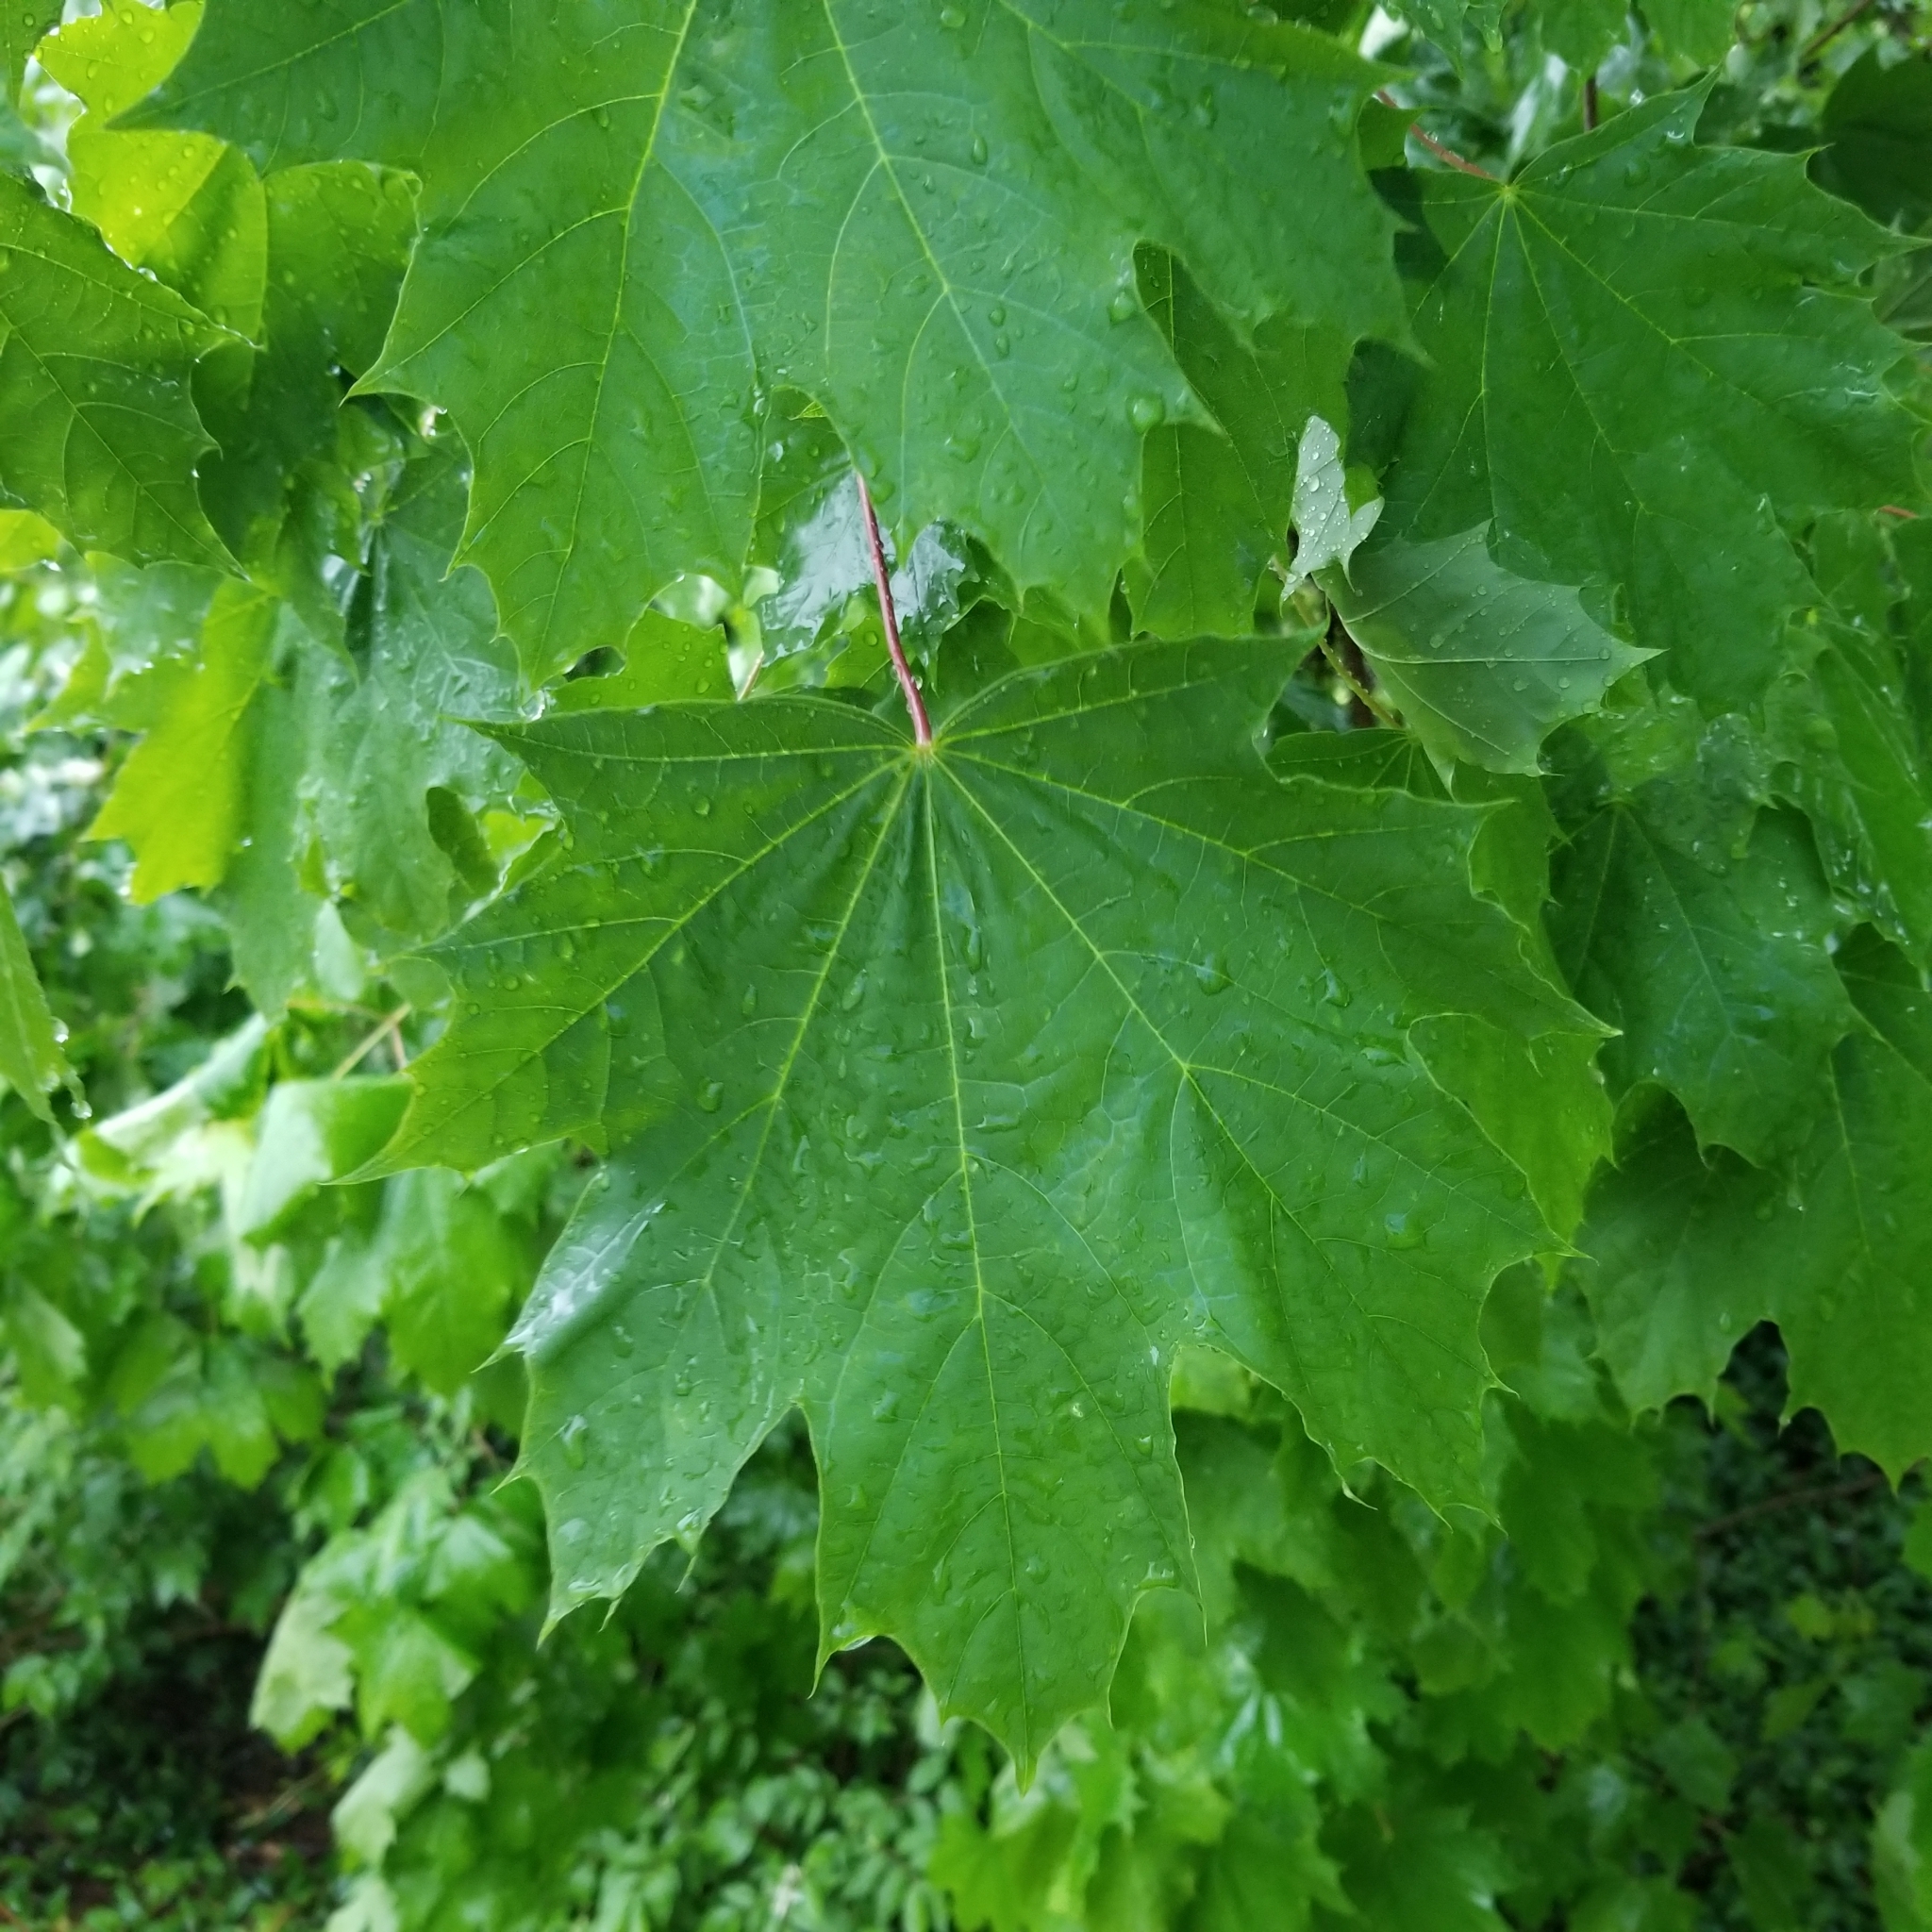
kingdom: Plantae
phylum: Tracheophyta
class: Magnoliopsida
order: Sapindales
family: Sapindaceae
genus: Acer
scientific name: Acer platanoides
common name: Norway maple
